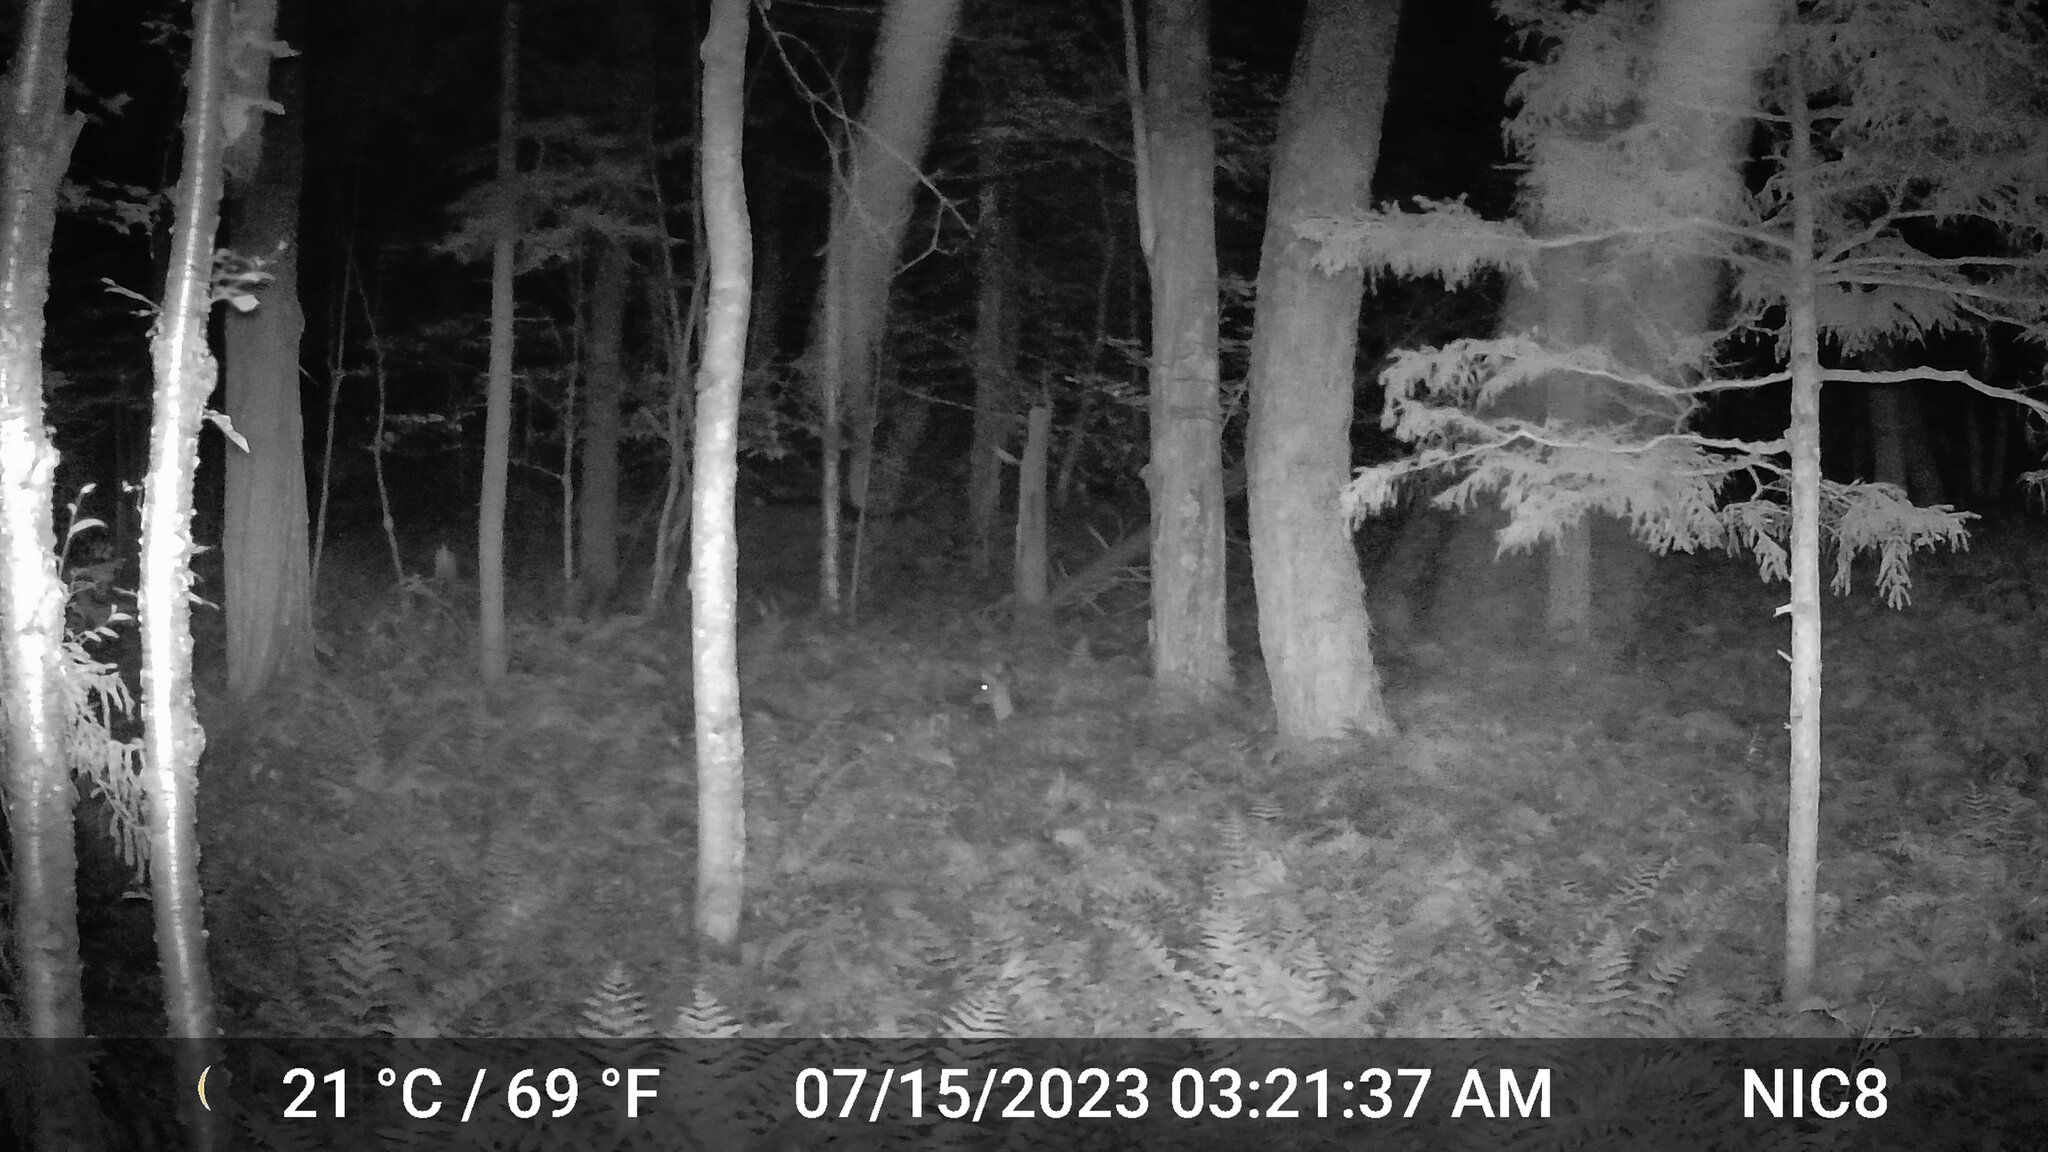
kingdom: Animalia
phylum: Chordata
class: Mammalia
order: Artiodactyla
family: Cervidae
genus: Odocoileus
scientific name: Odocoileus virginianus
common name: White-tailed deer
